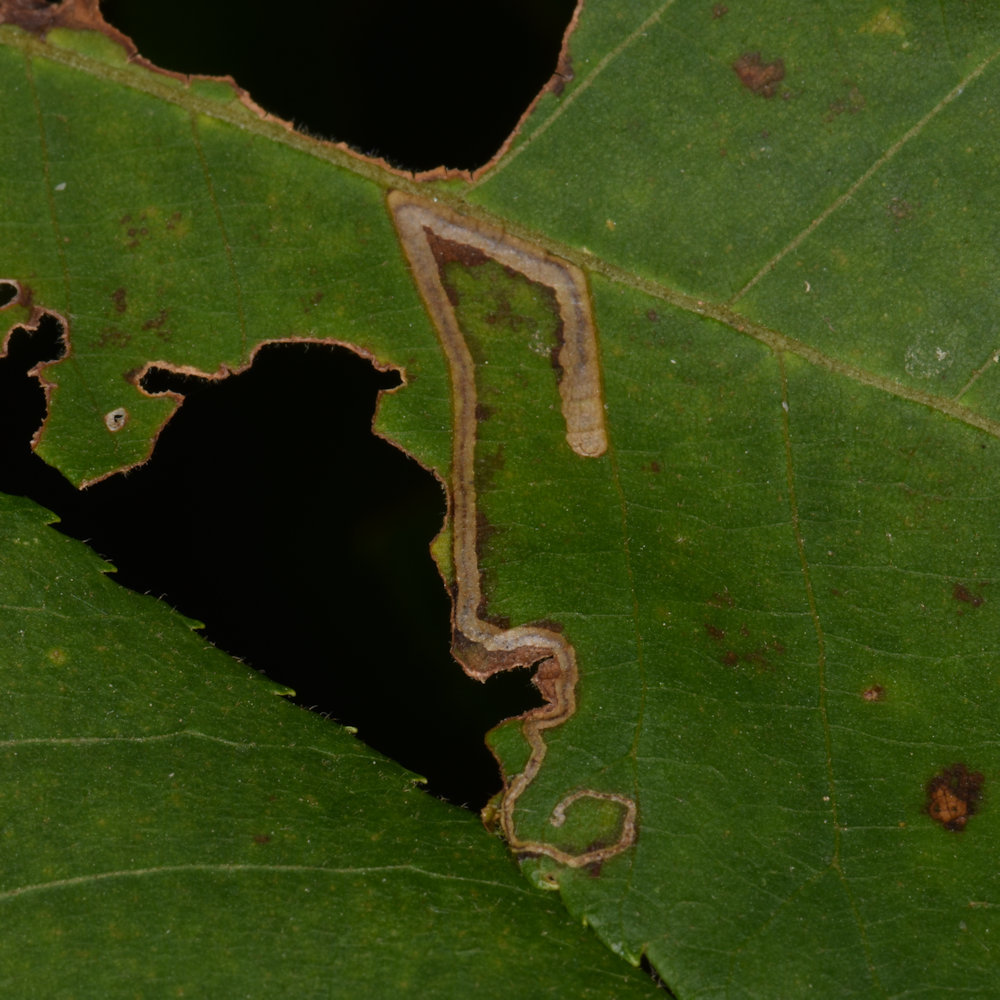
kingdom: Animalia
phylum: Arthropoda
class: Insecta
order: Lepidoptera
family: Nepticulidae
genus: Stigmella
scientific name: Stigmella caryaefoliella
